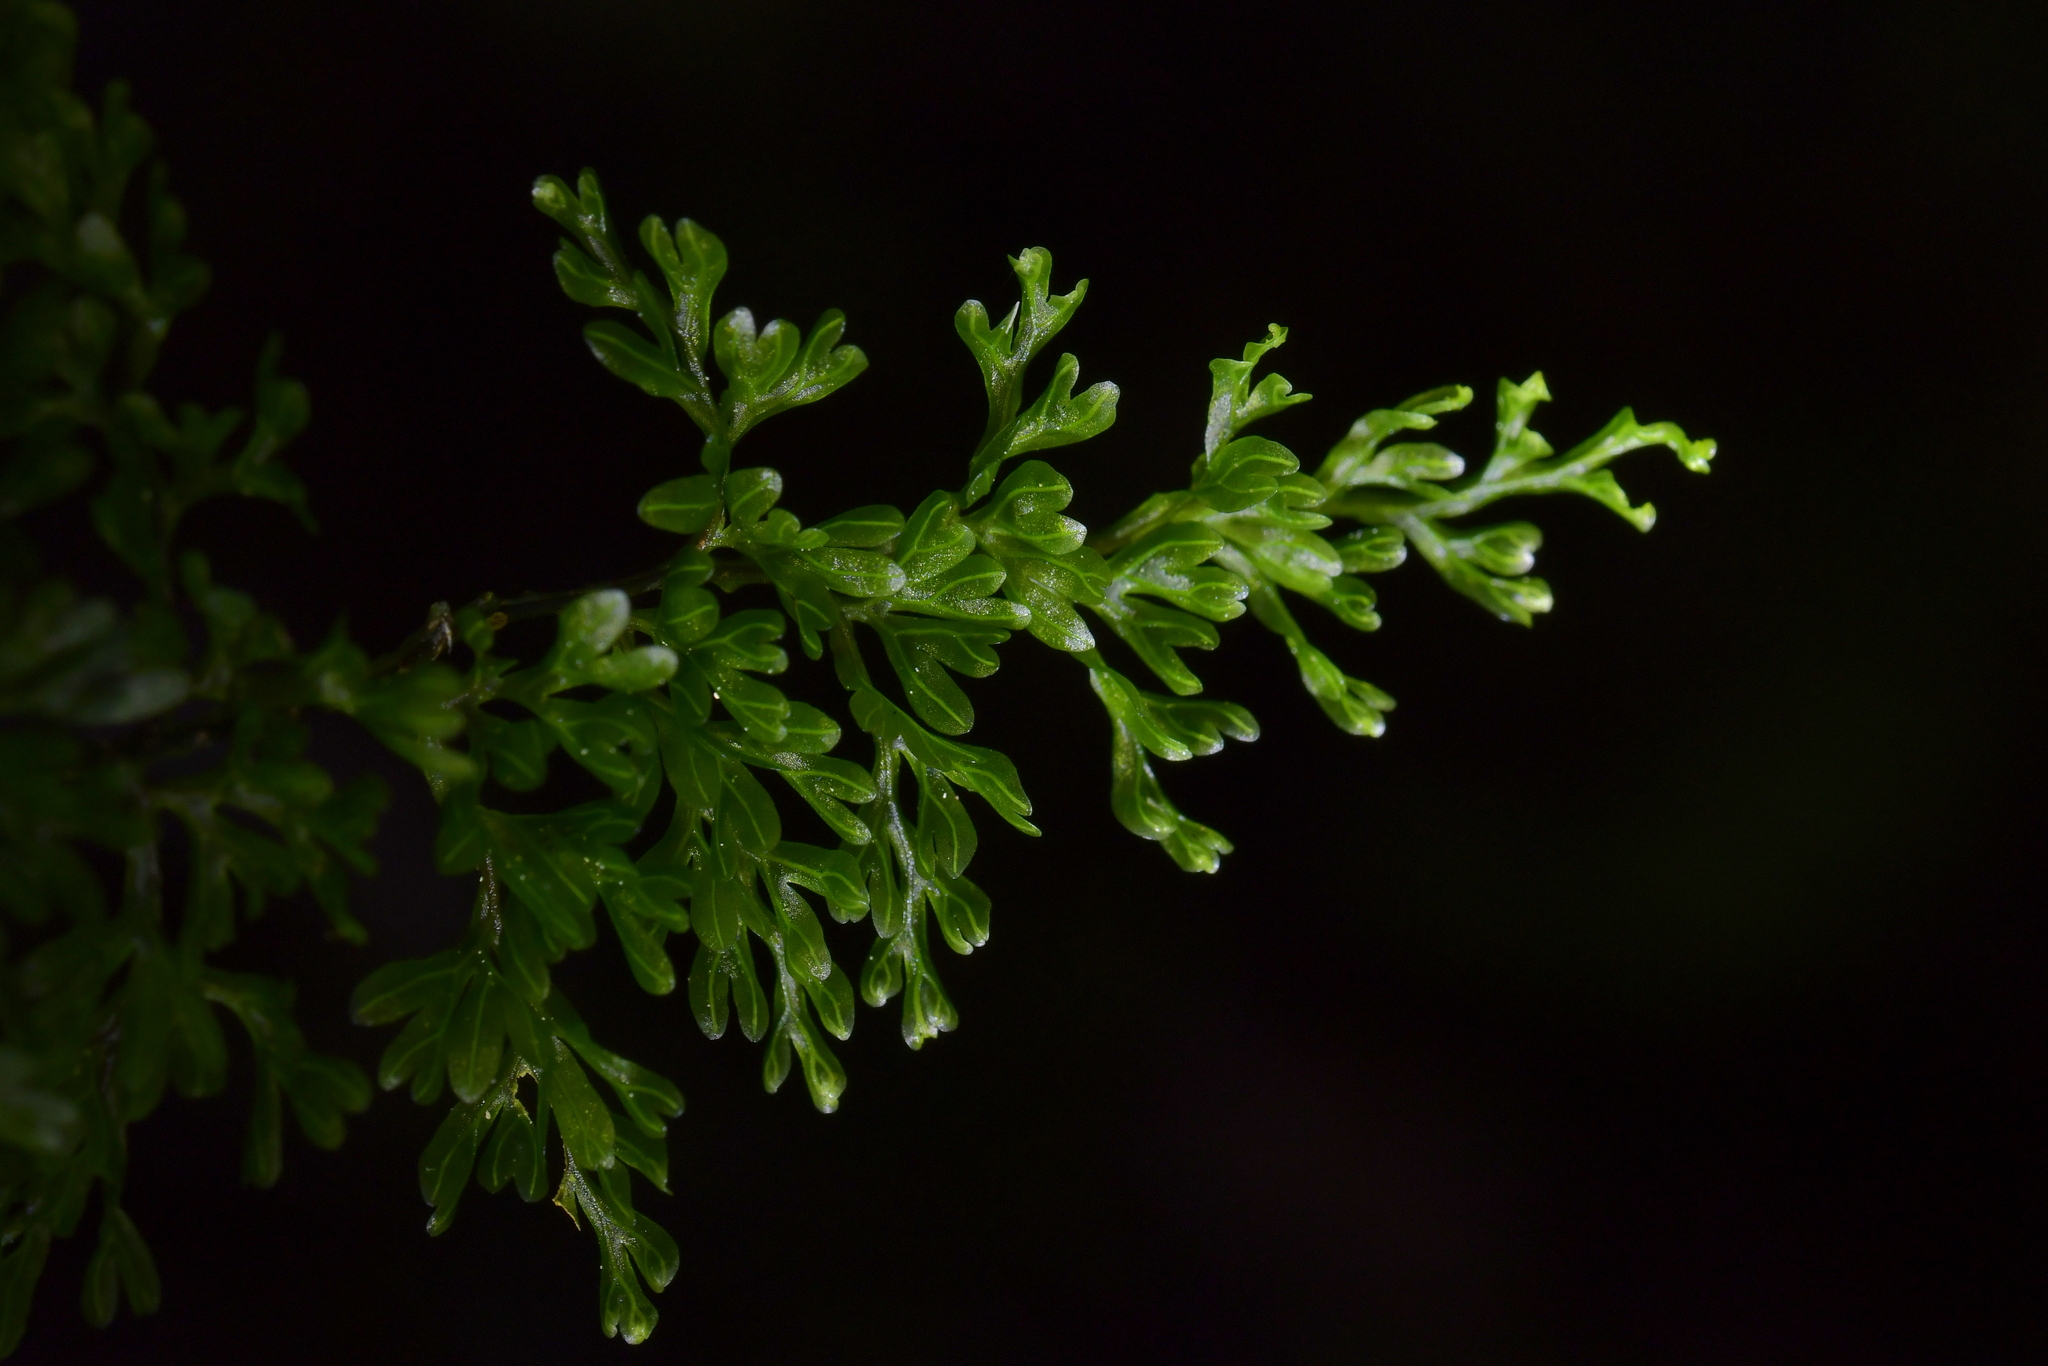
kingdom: Plantae
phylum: Tracheophyta
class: Polypodiopsida
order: Hymenophyllales
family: Hymenophyllaceae
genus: Hymenophyllum
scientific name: Hymenophyllum sanguinolentum
